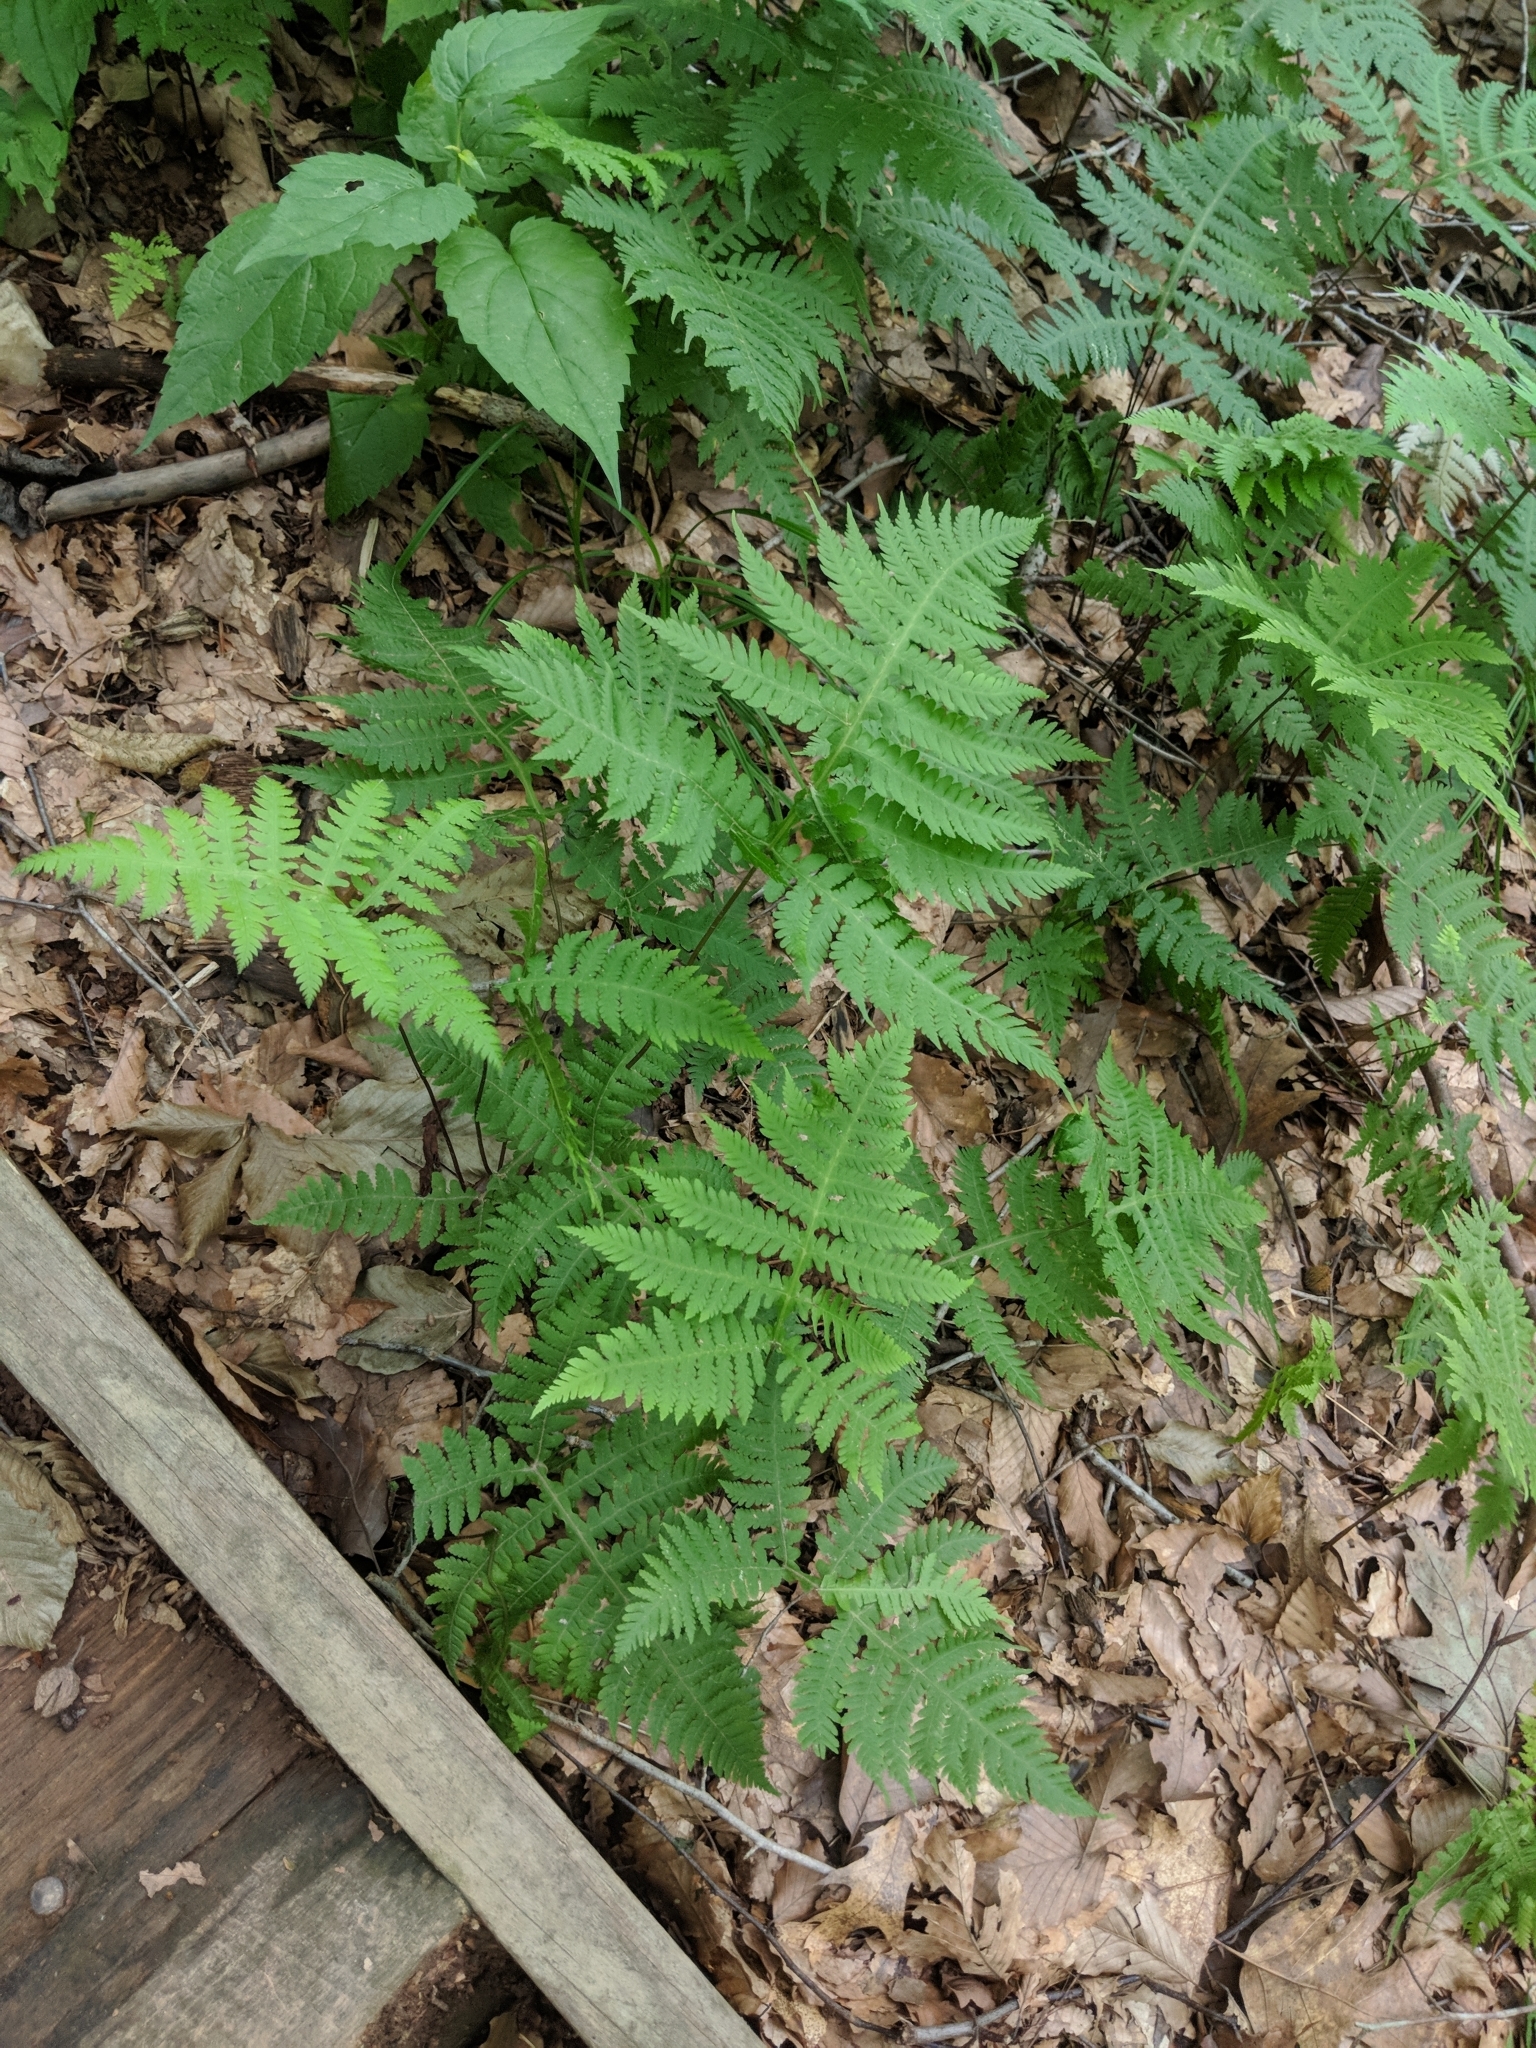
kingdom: Plantae
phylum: Tracheophyta
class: Polypodiopsida
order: Polypodiales
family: Thelypteridaceae
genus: Phegopteris
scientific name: Phegopteris hexagonoptera
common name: Broad beech fern
